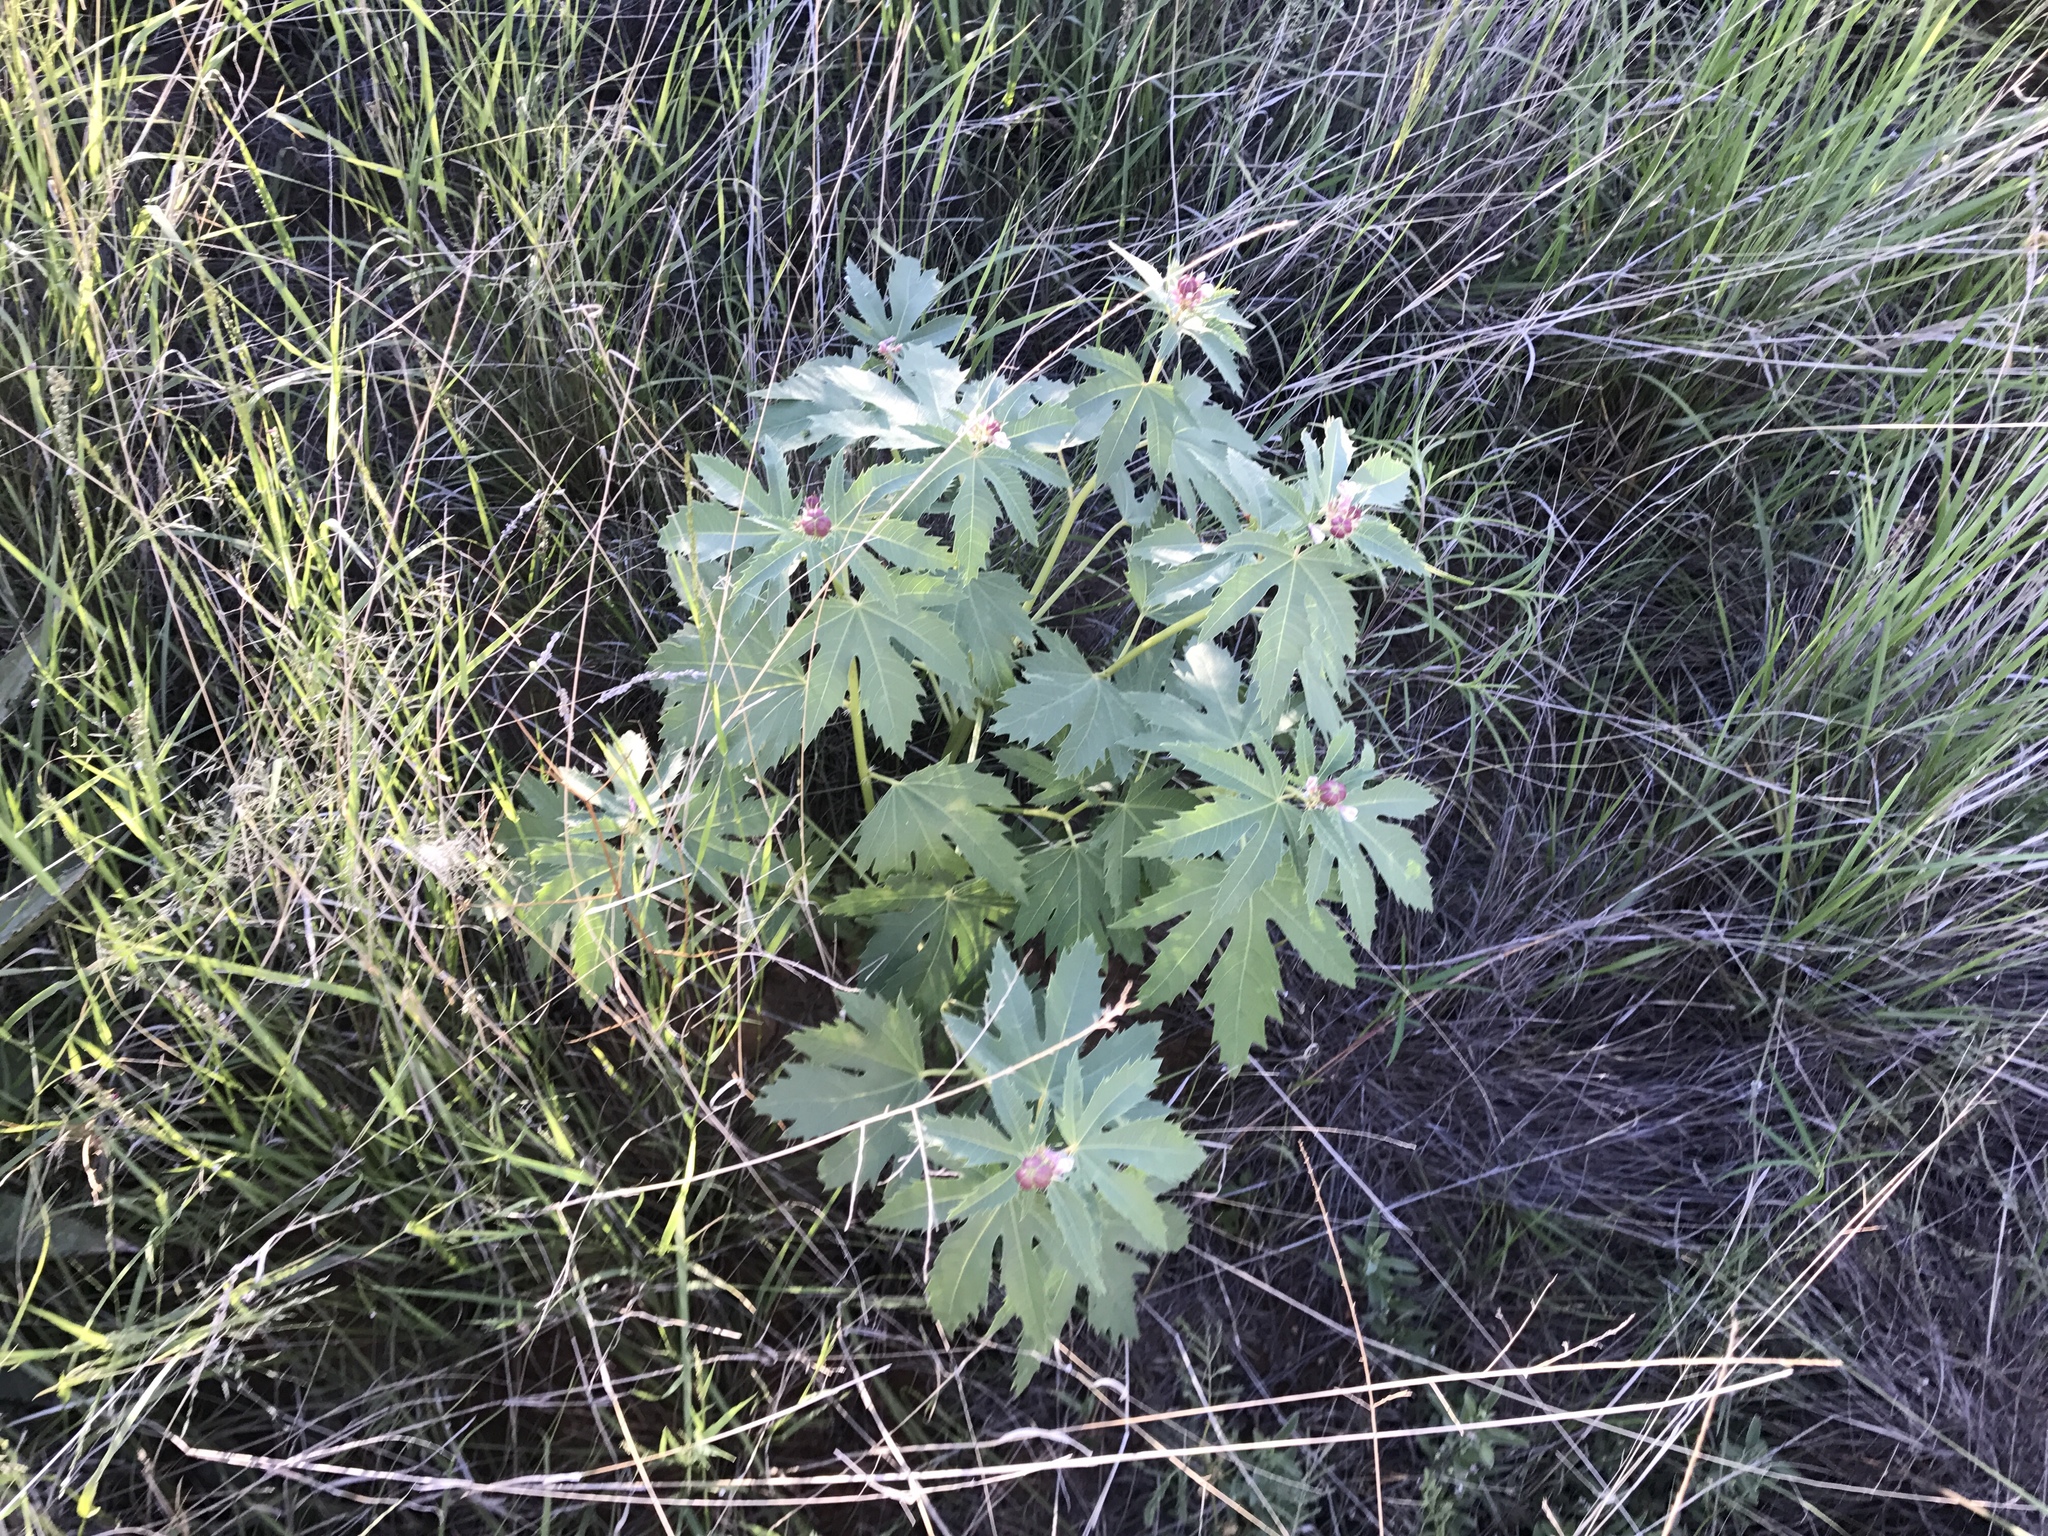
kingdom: Plantae
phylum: Tracheophyta
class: Magnoliopsida
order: Malpighiales
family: Euphorbiaceae
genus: Jatropha
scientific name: Jatropha macrorhiza
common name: Ragged nettlespurge
